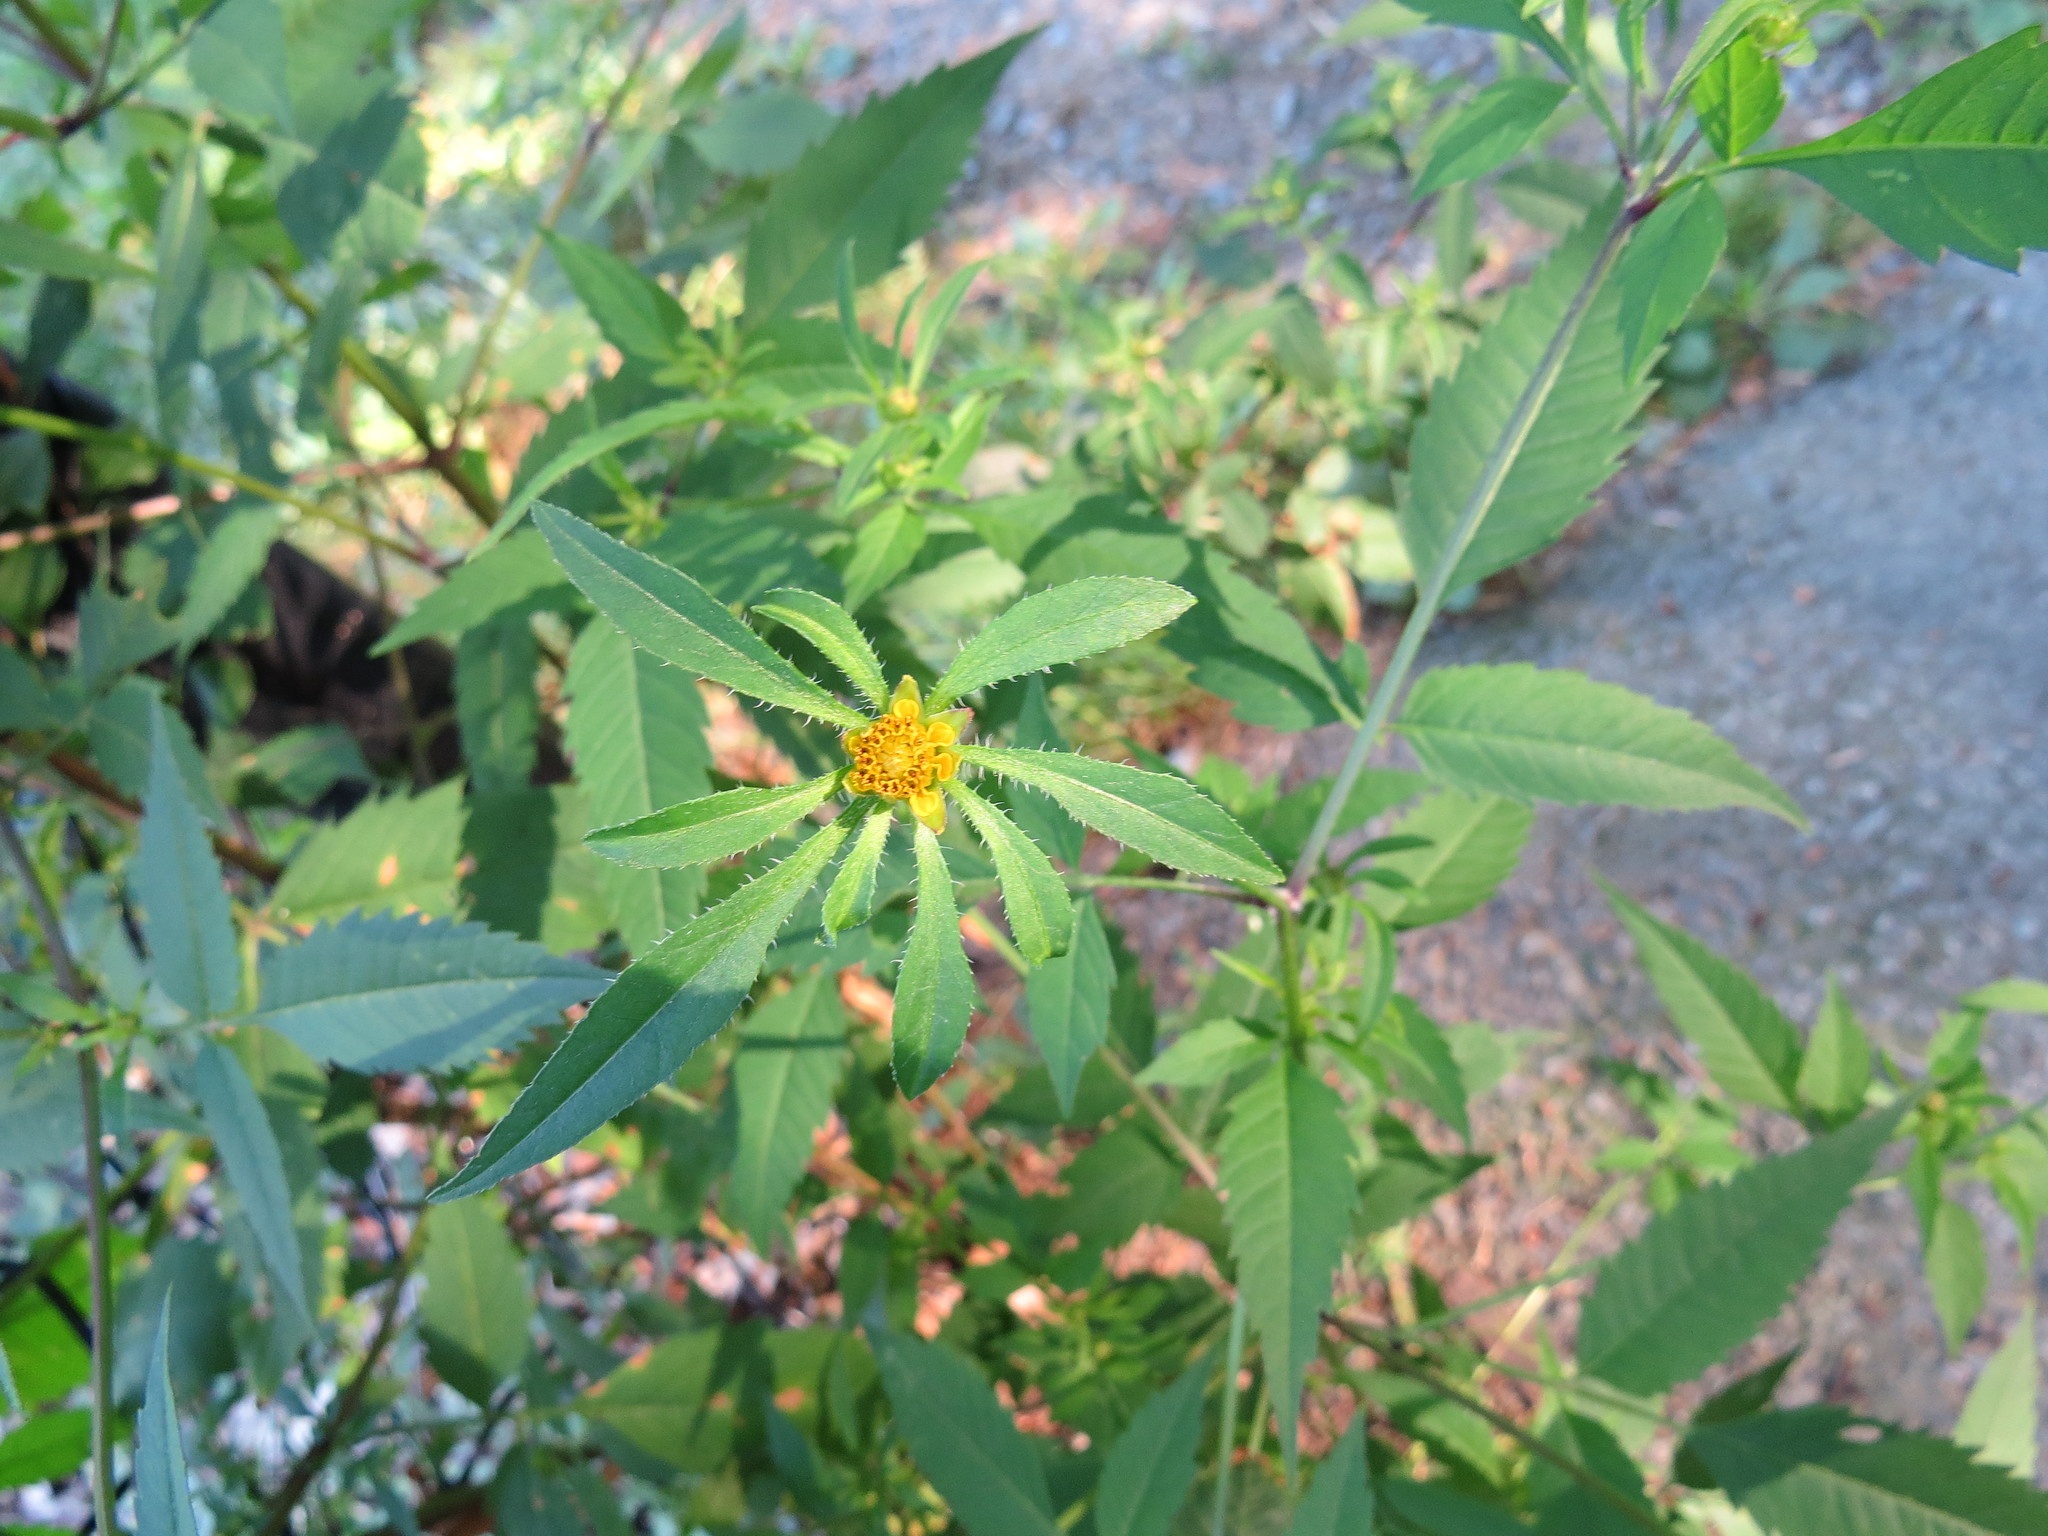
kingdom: Plantae
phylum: Tracheophyta
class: Magnoliopsida
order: Asterales
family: Asteraceae
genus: Bidens
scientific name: Bidens frondosa
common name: Beggarticks
